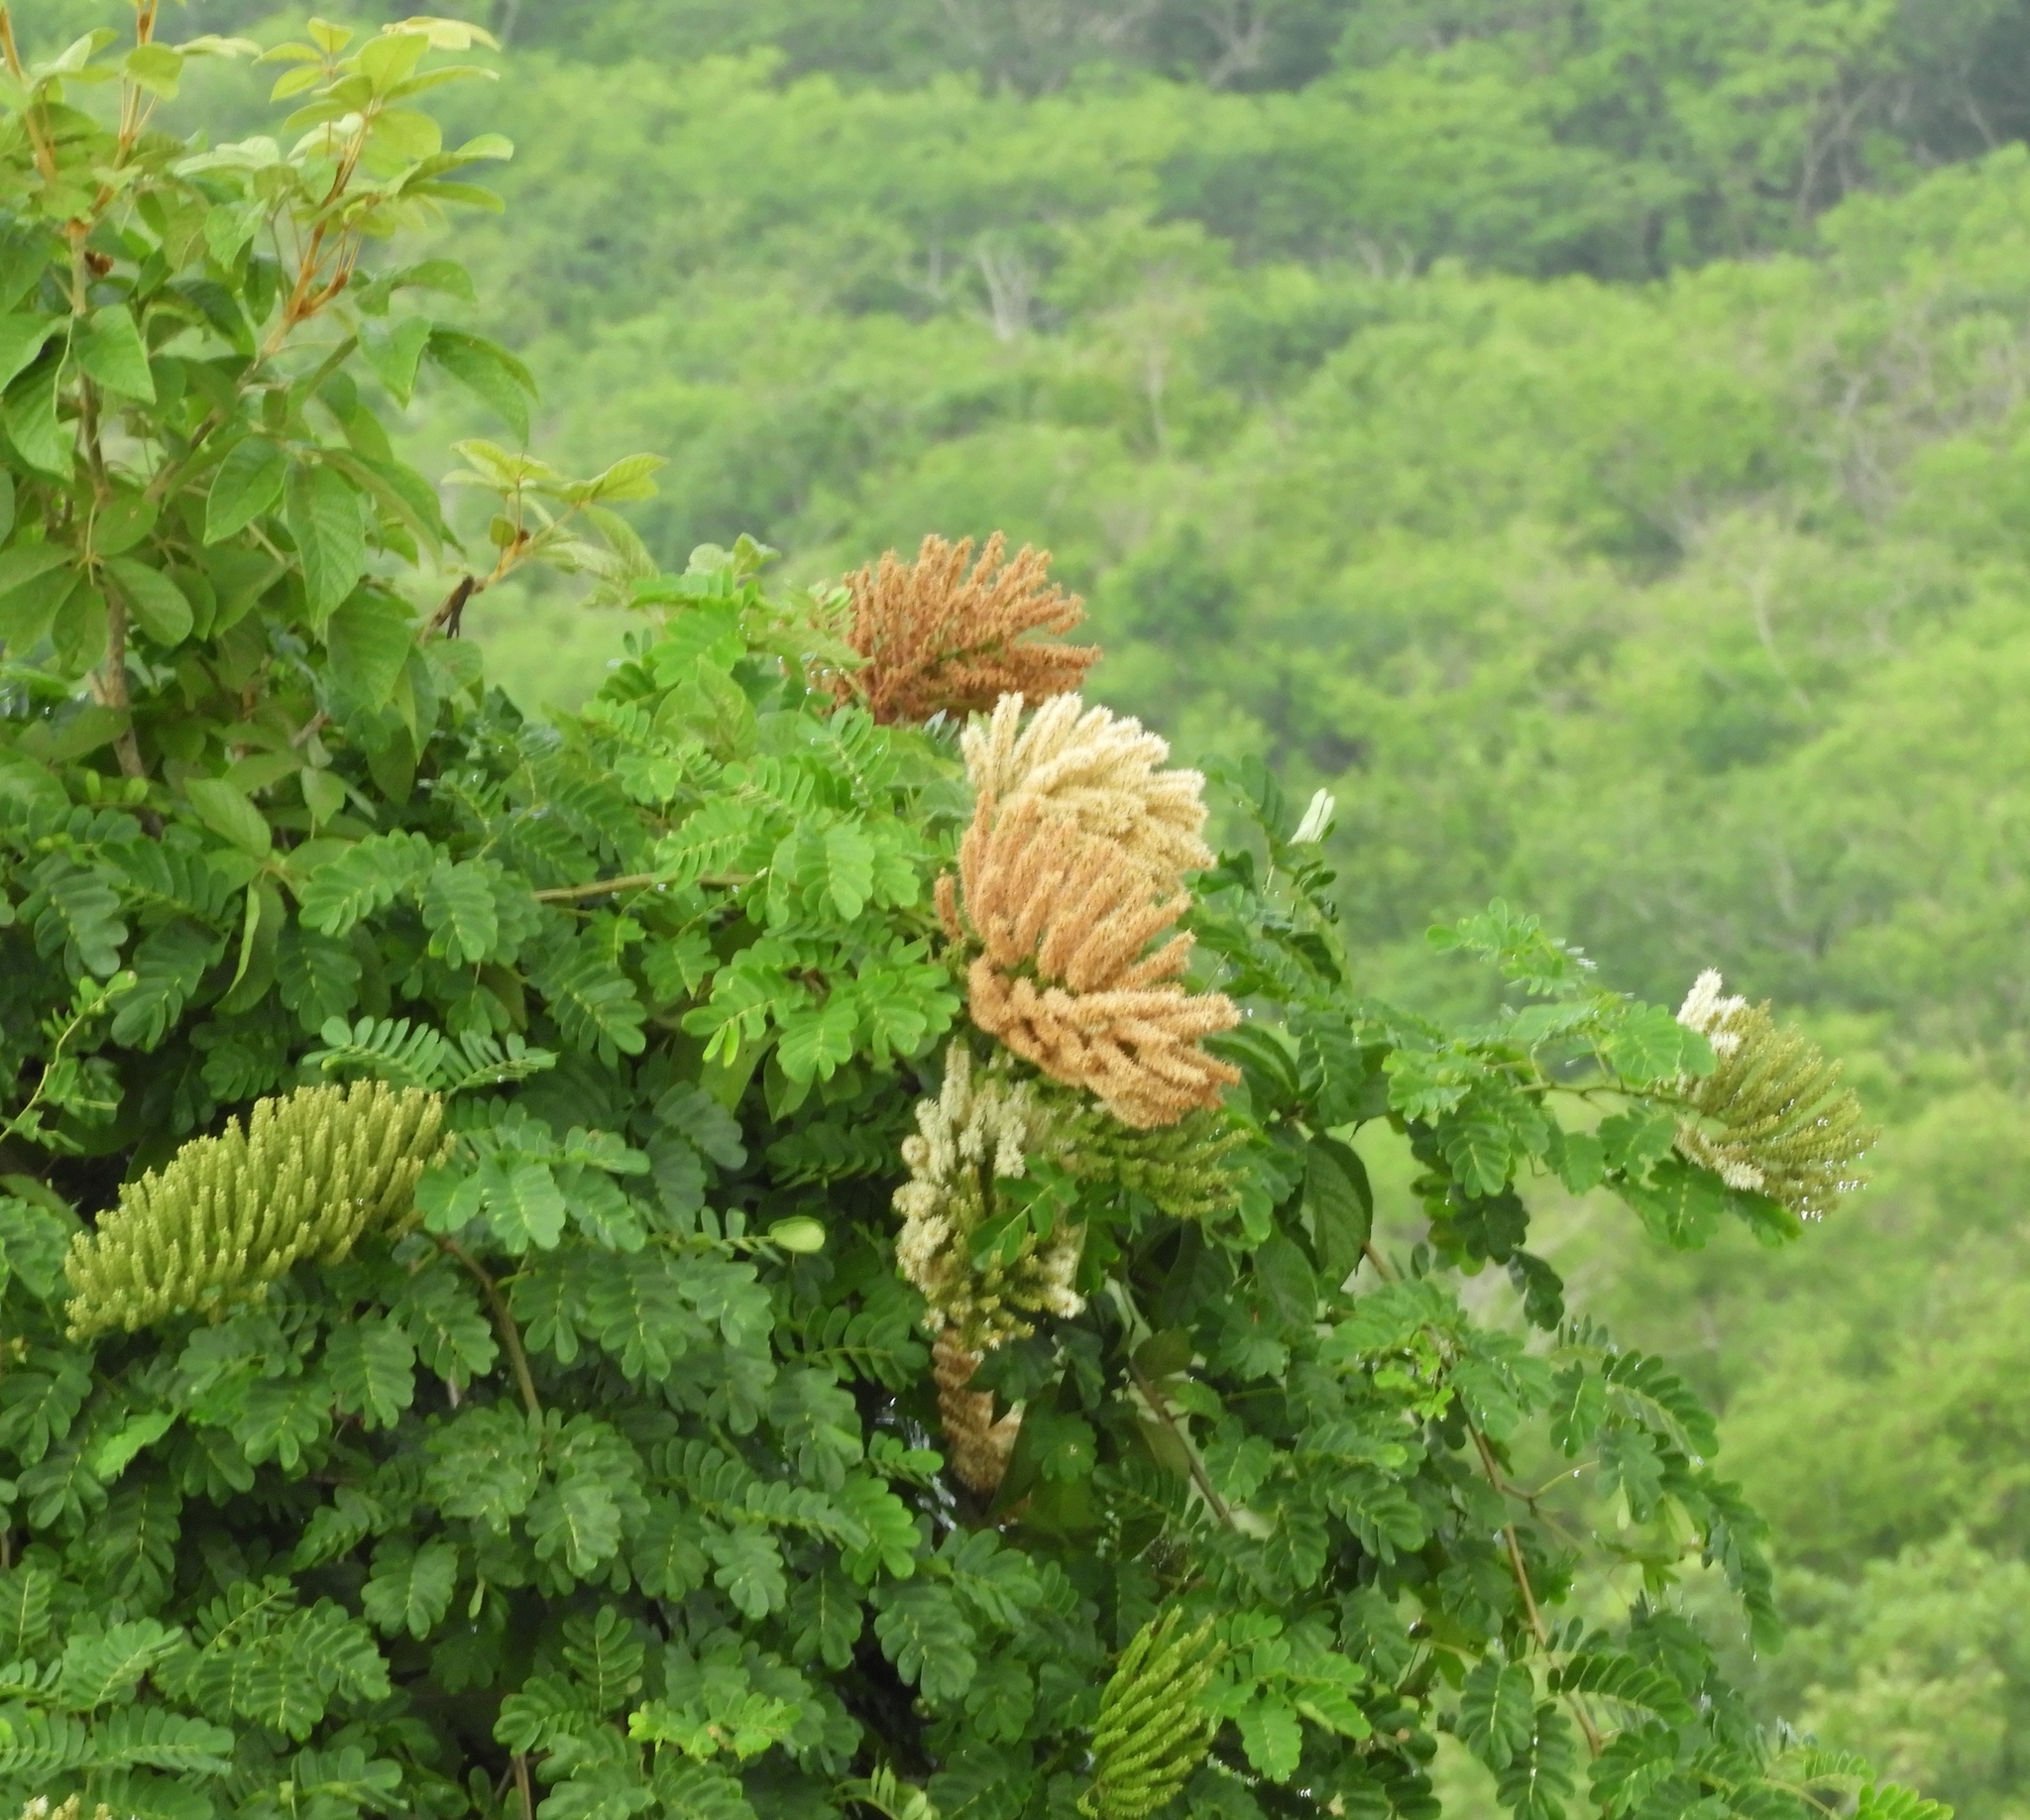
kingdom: Plantae
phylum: Tracheophyta
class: Magnoliopsida
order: Fabales
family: Fabaceae
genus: Entada
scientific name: Entada polystachya
